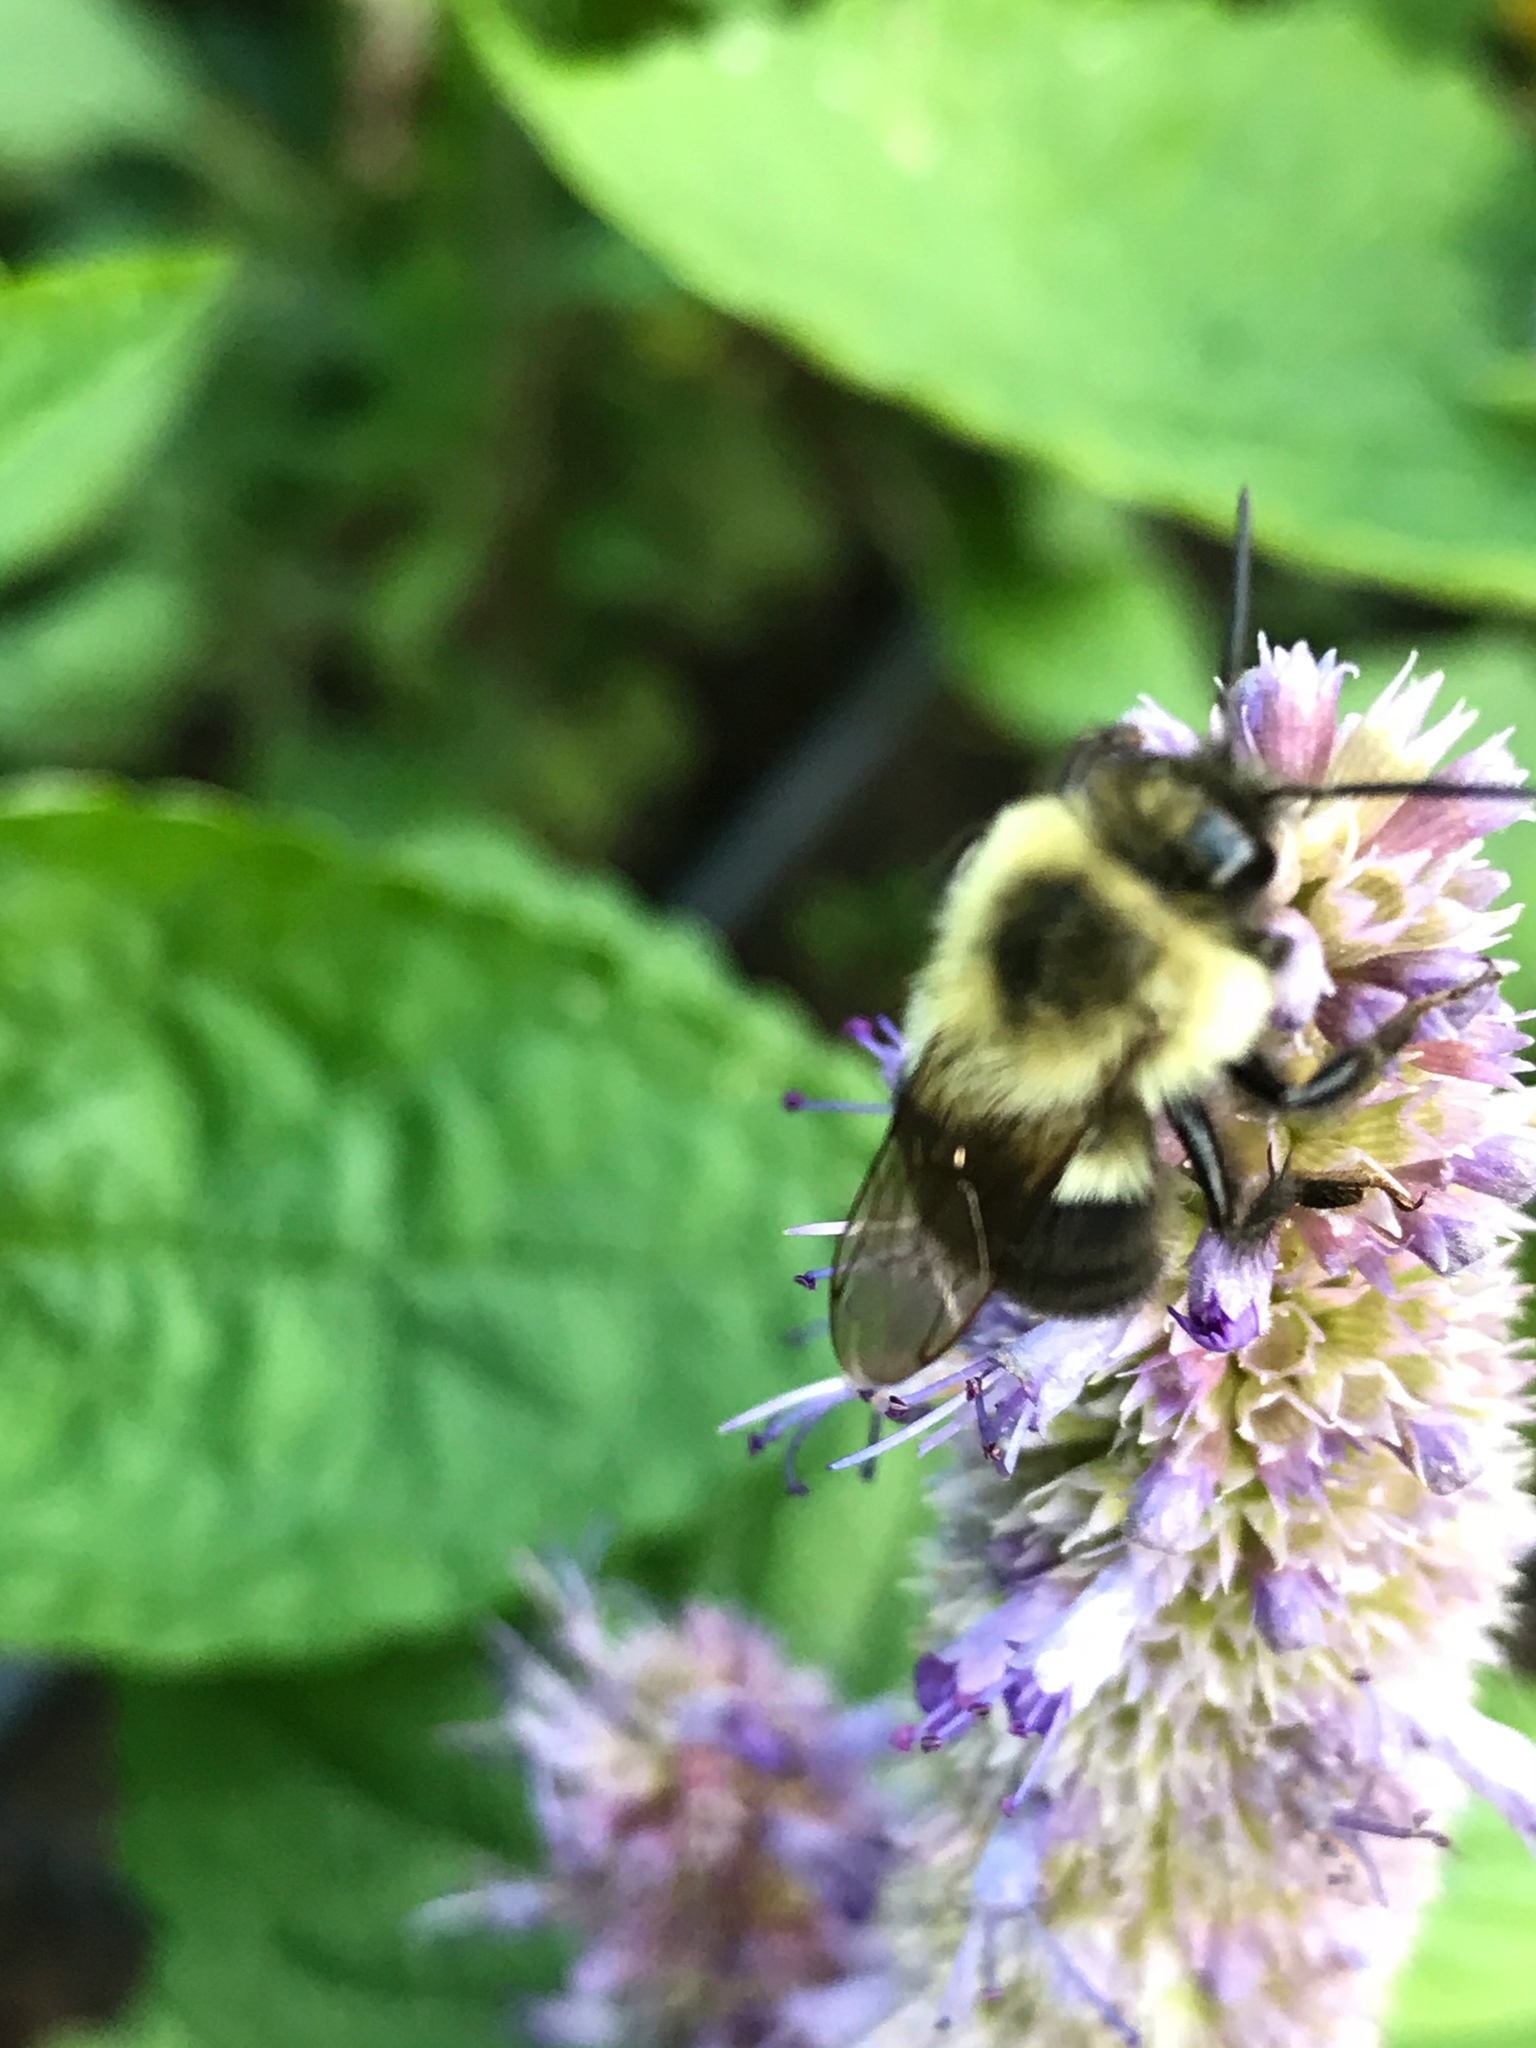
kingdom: Animalia
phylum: Arthropoda
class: Insecta
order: Hymenoptera
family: Apidae
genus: Bombus
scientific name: Bombus impatiens
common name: Common eastern bumble bee
